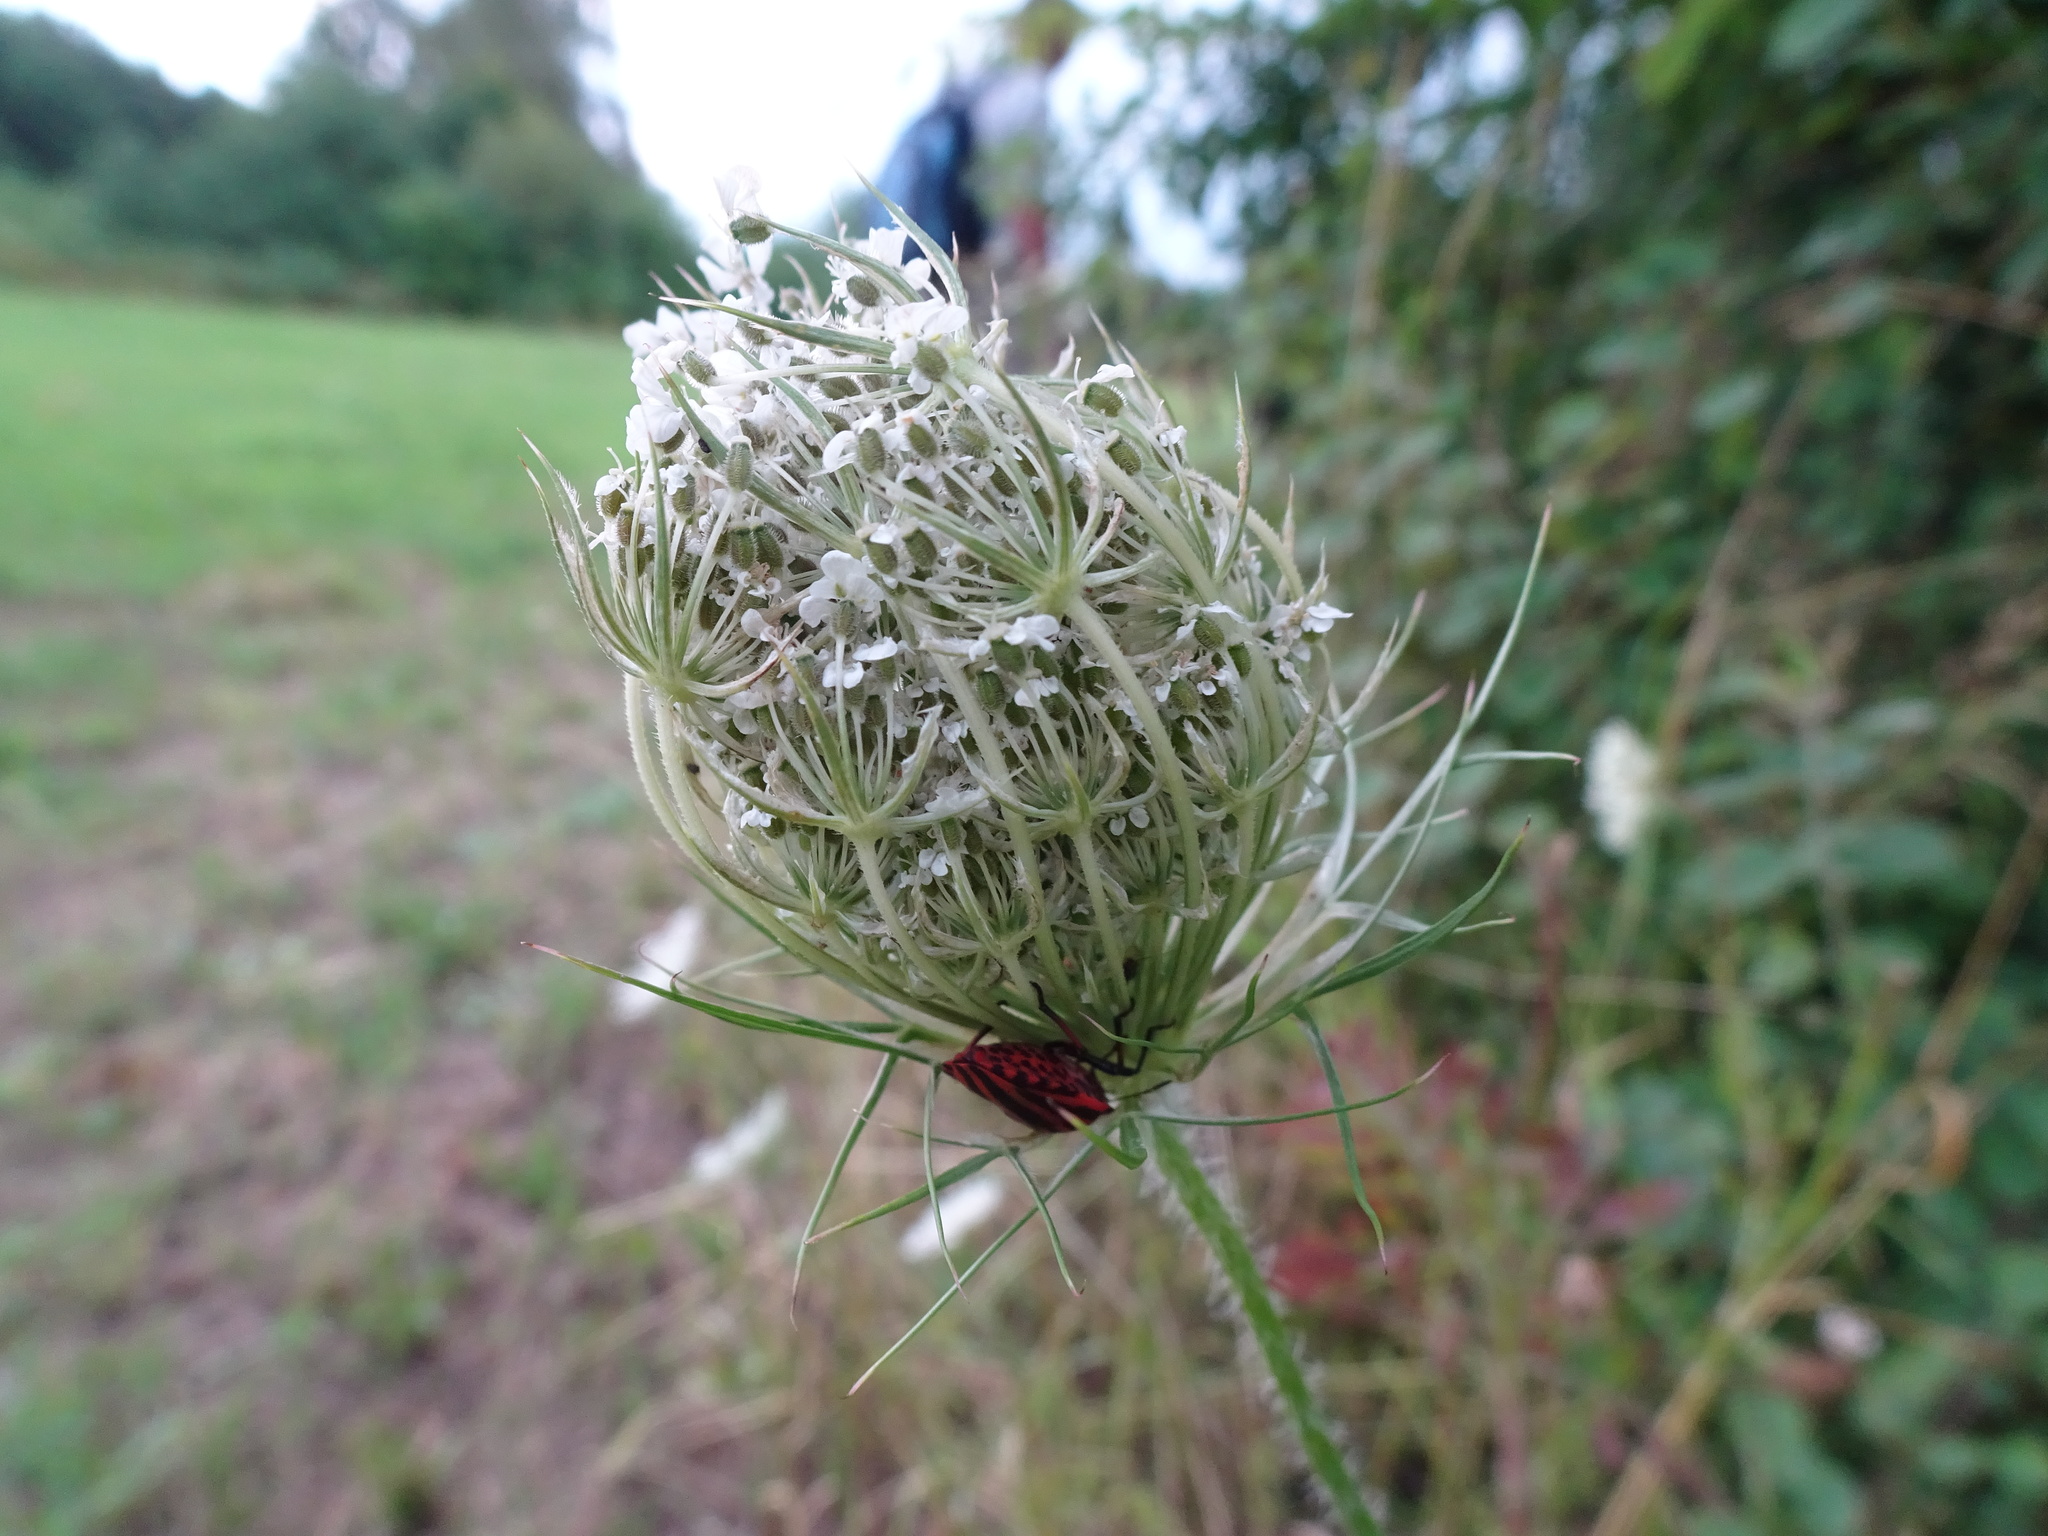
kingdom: Plantae
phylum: Tracheophyta
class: Magnoliopsida
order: Apiales
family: Apiaceae
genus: Daucus
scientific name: Daucus carota
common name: Wild carrot
